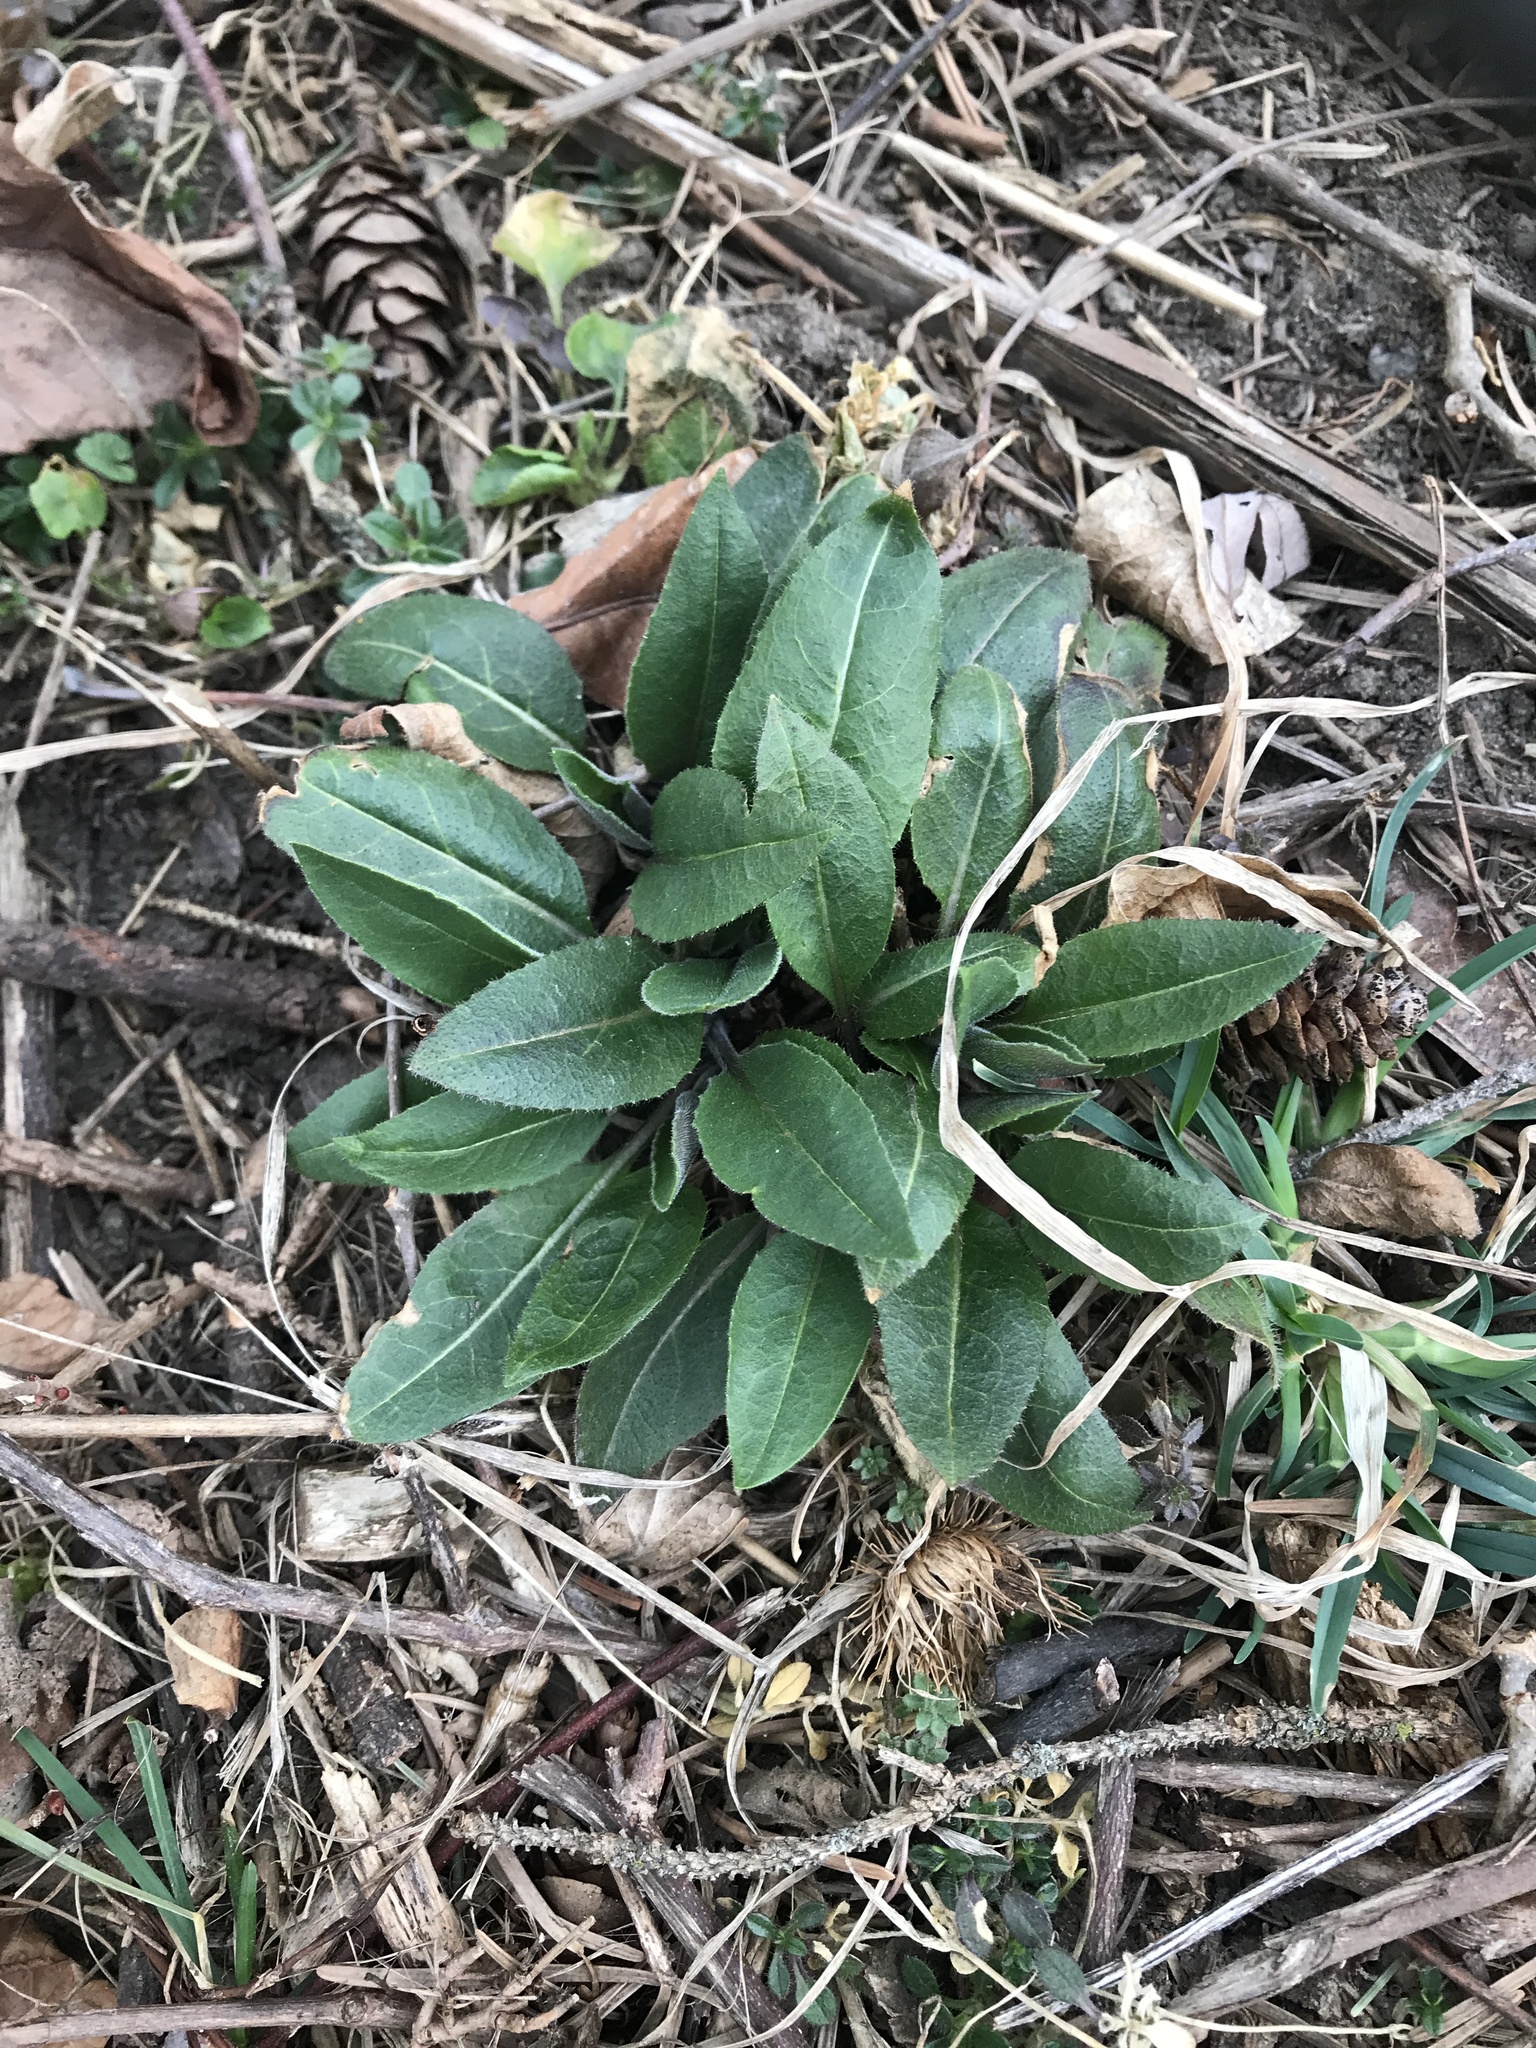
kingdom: Plantae
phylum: Tracheophyta
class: Magnoliopsida
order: Brassicales
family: Brassicaceae
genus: Hesperis
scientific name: Hesperis matronalis
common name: Dame's-violet
